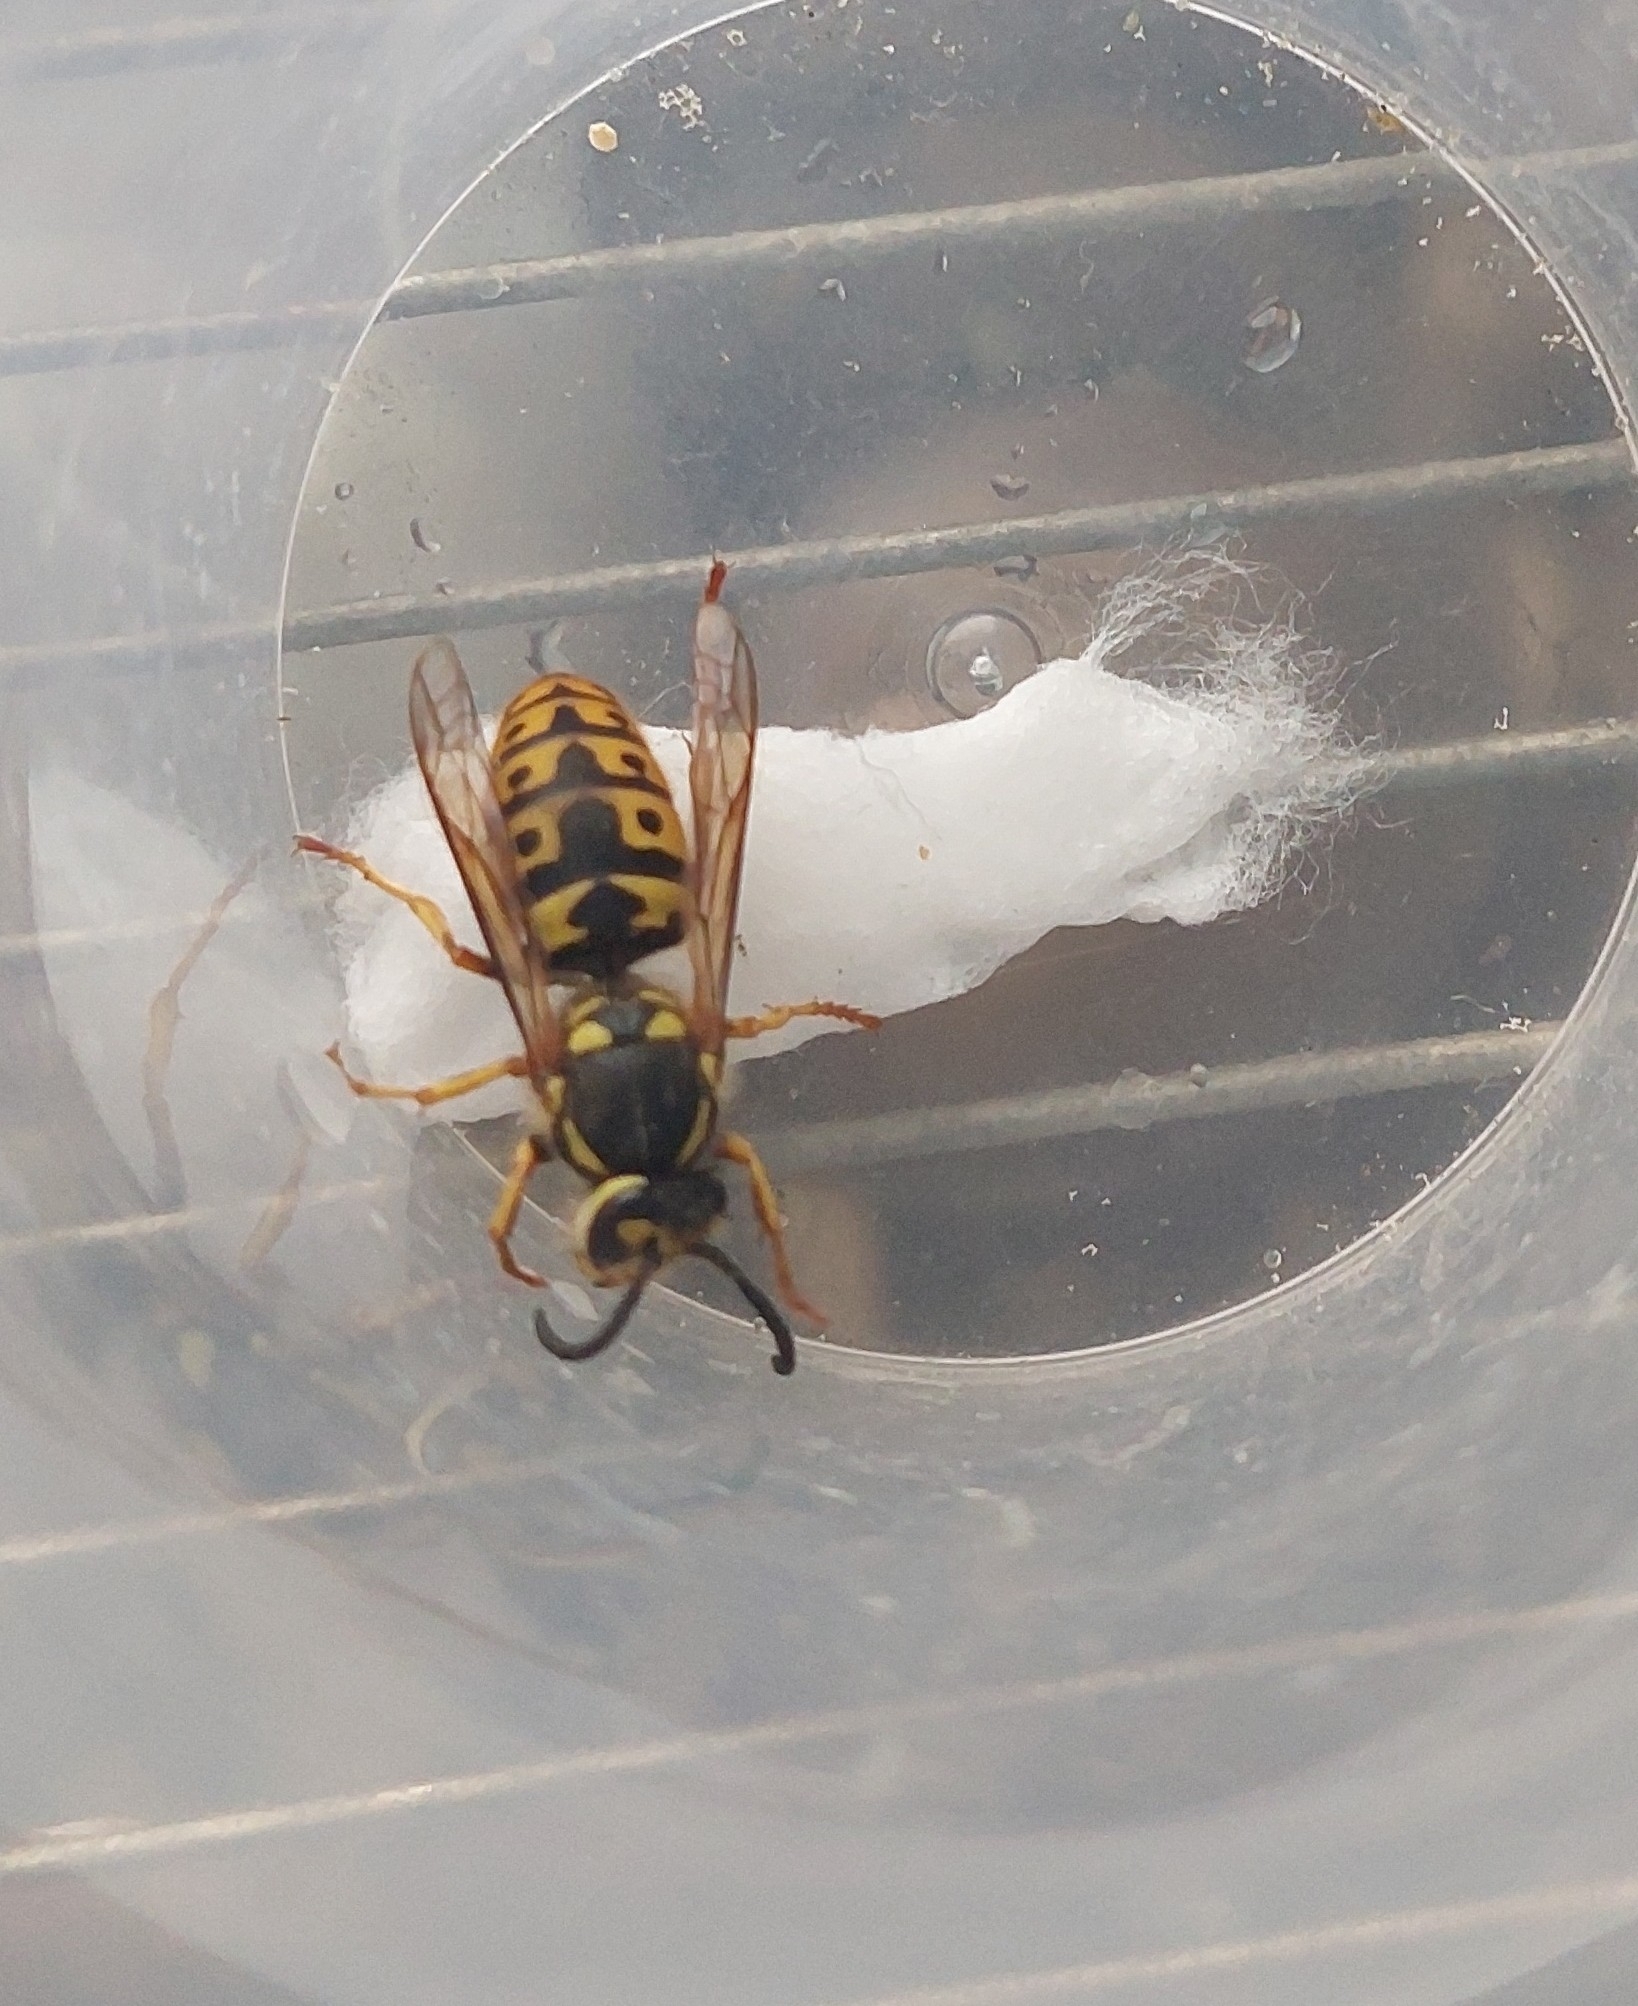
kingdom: Animalia
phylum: Arthropoda
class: Insecta
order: Hymenoptera
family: Vespidae
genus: Vespula
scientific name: Vespula germanica
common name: German wasp
